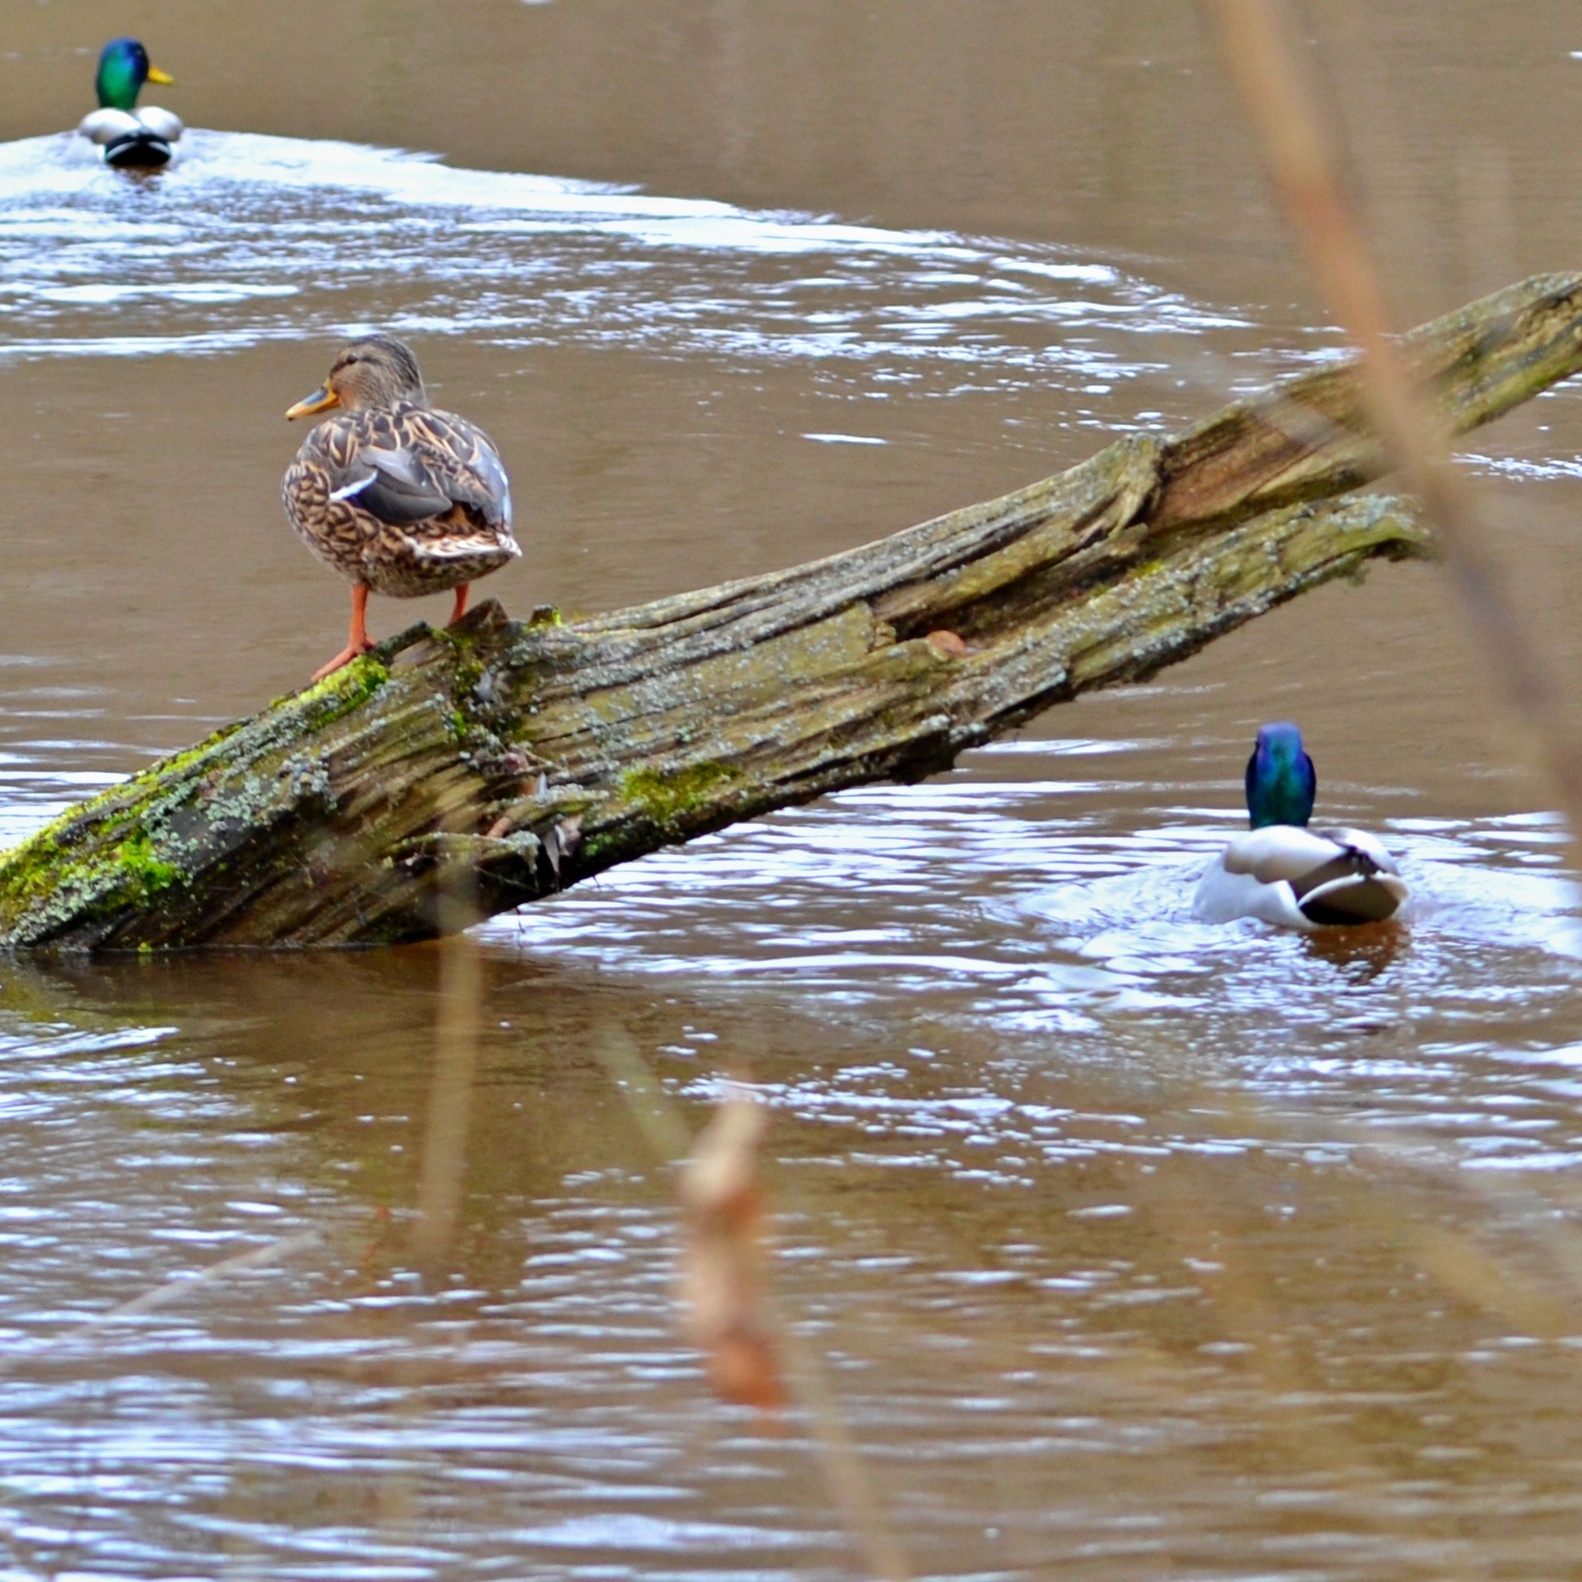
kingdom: Animalia
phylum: Chordata
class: Aves
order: Anseriformes
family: Anatidae
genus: Anas
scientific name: Anas platyrhynchos
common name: Mallard
